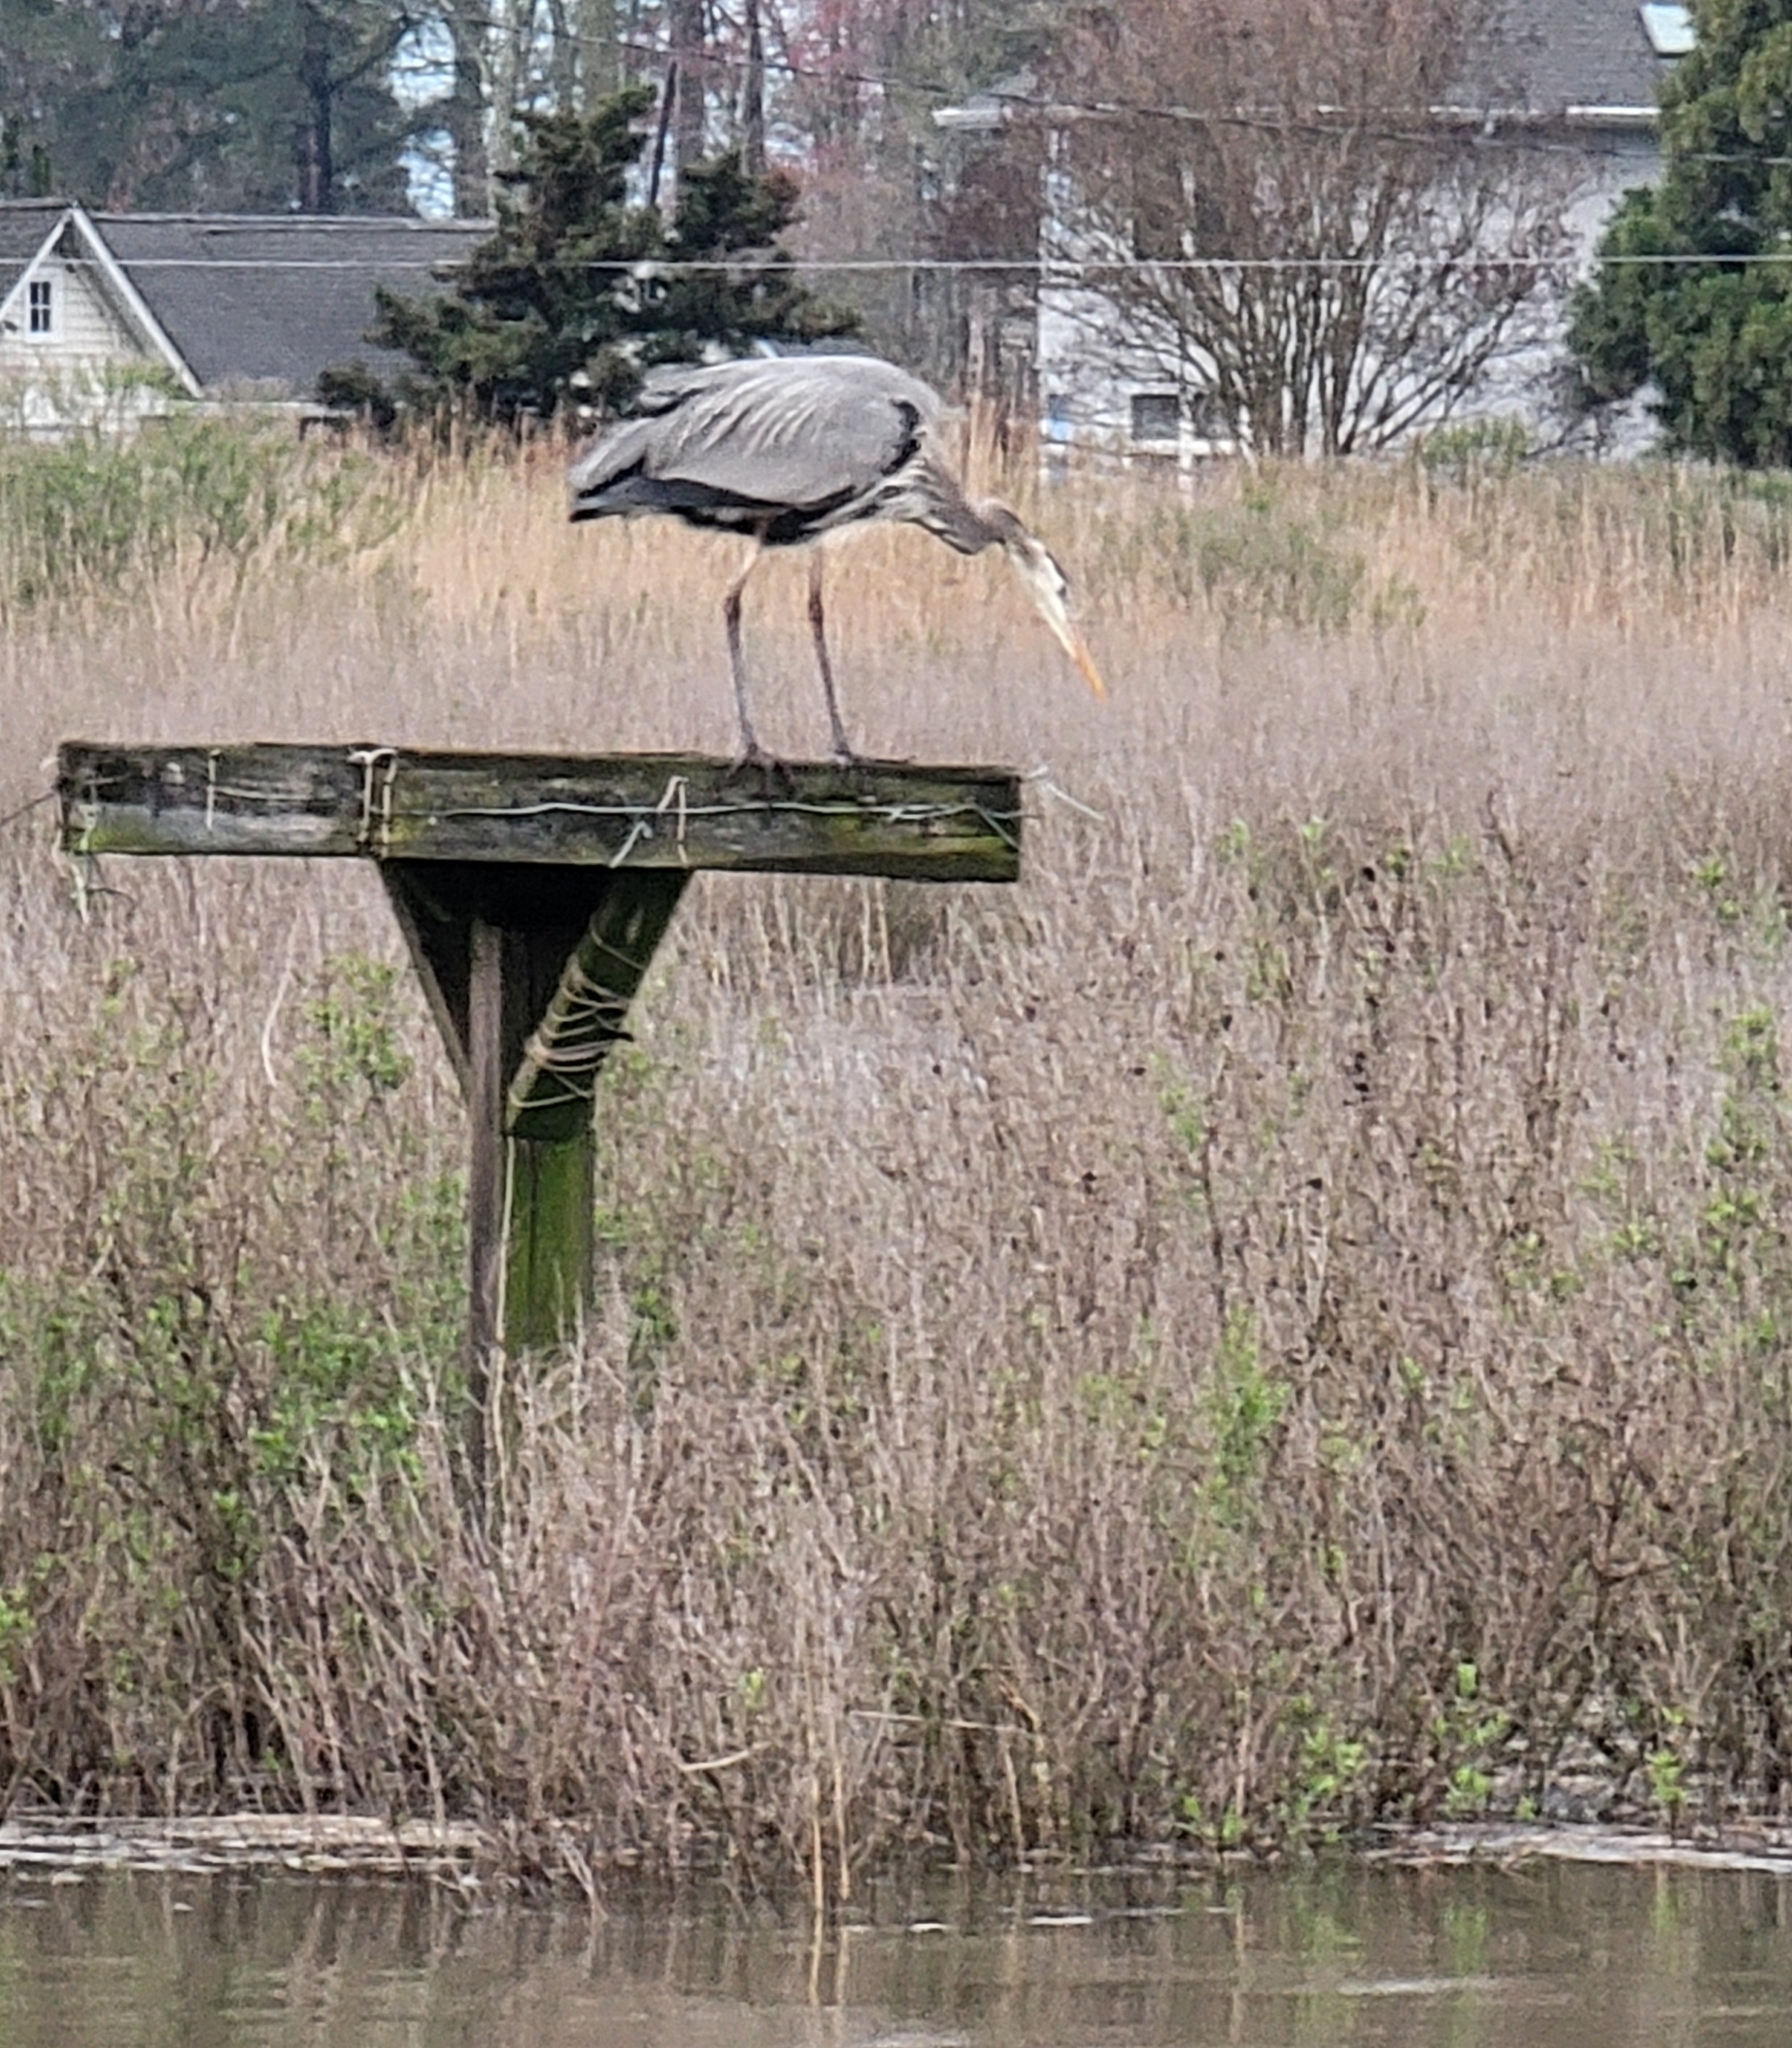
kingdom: Animalia
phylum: Chordata
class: Aves
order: Pelecaniformes
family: Ardeidae
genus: Ardea
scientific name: Ardea herodias
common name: Great blue heron
